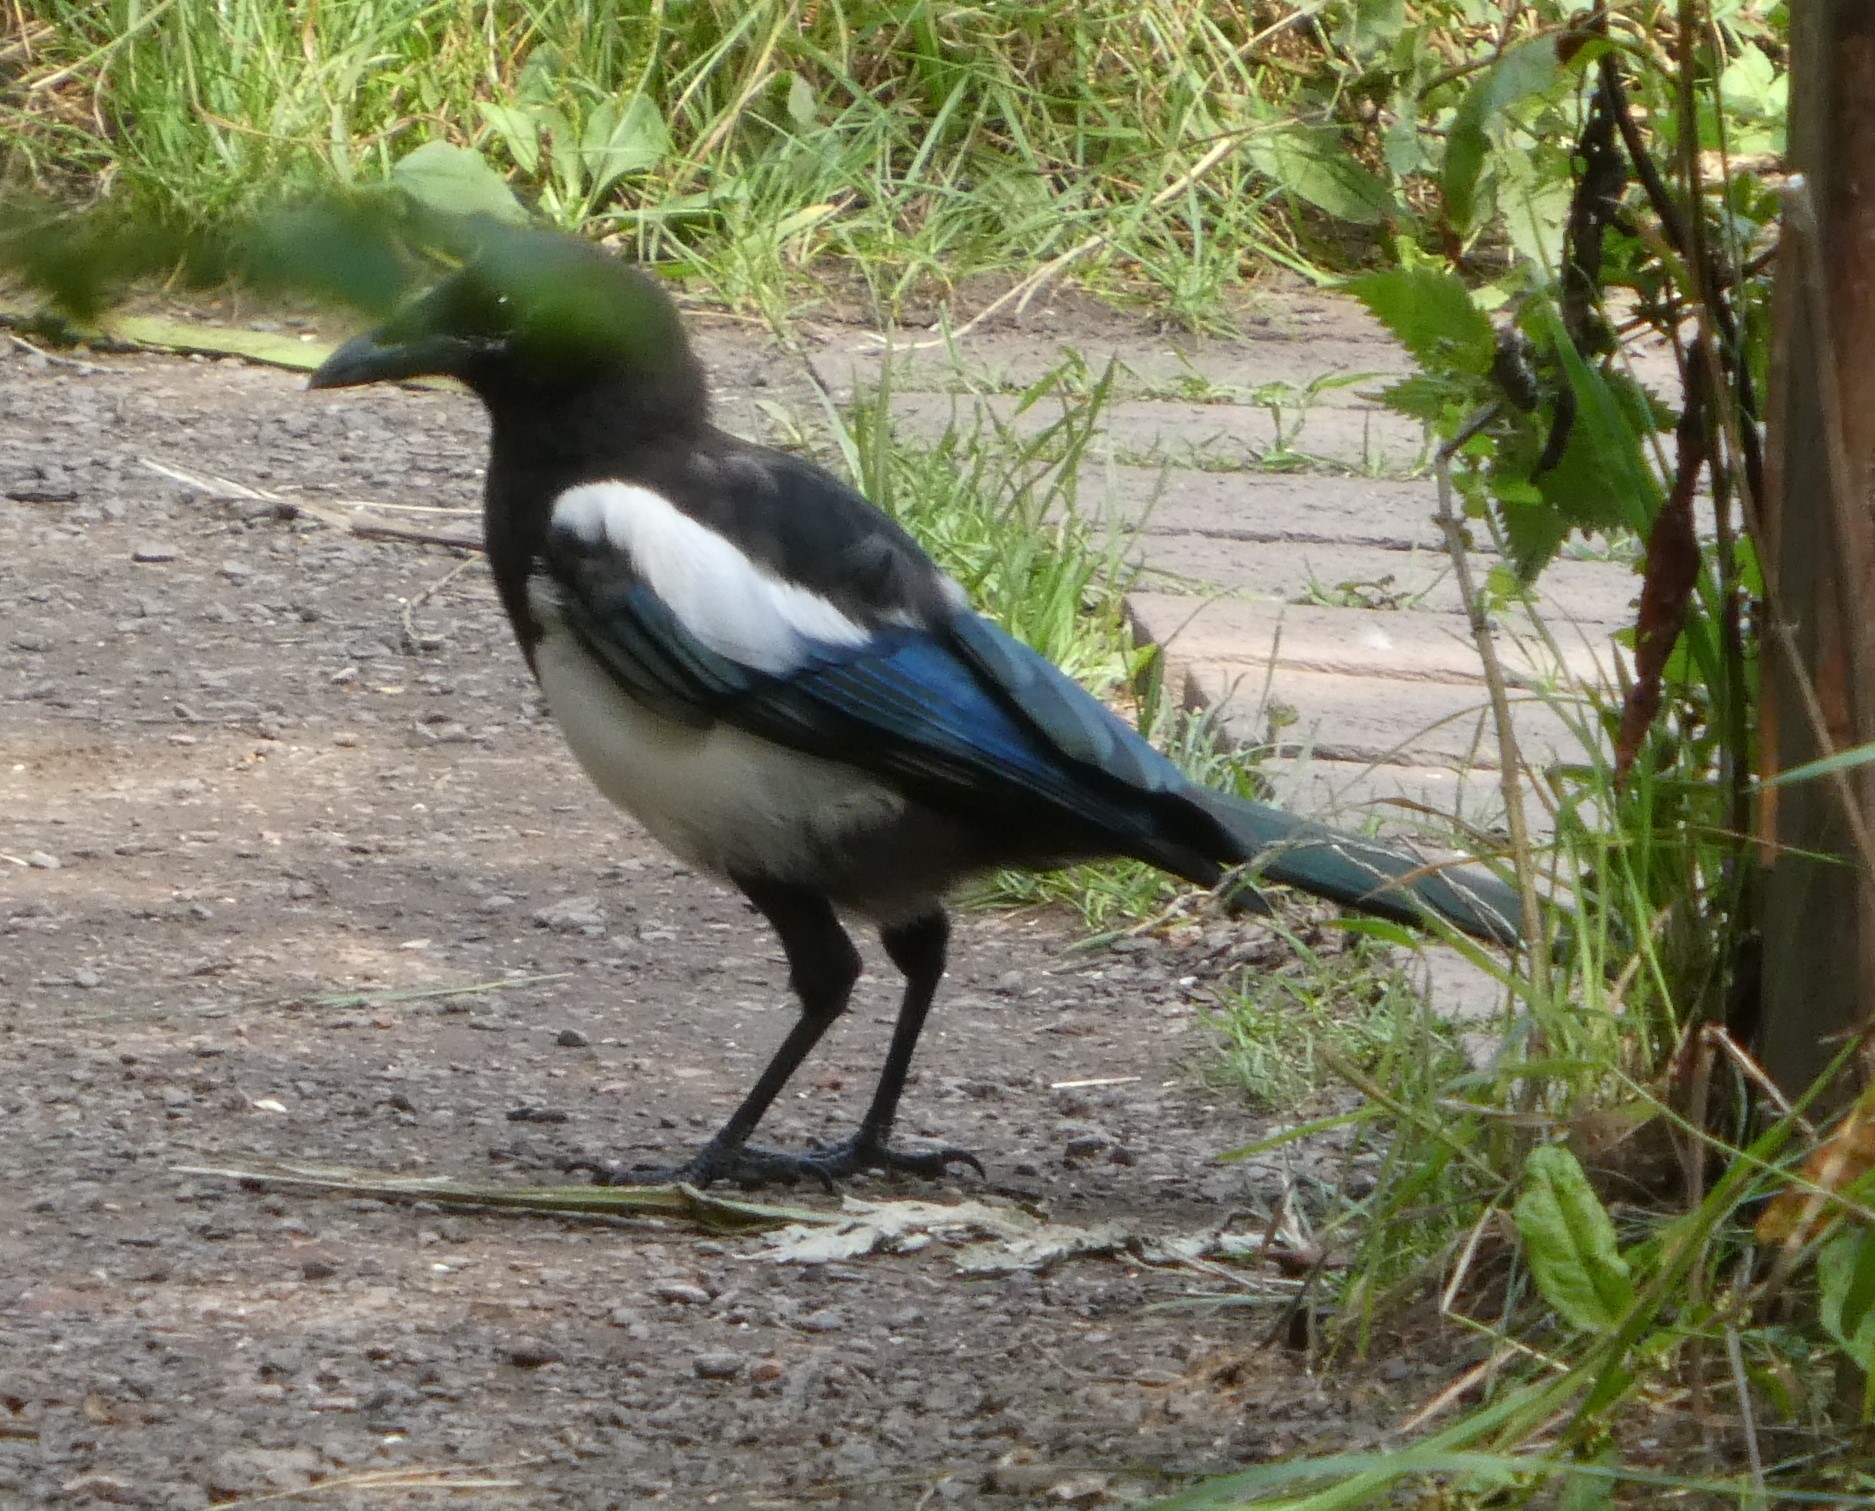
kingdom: Animalia
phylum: Chordata
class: Aves
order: Passeriformes
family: Corvidae
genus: Pica
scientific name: Pica pica
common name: Eurasian magpie
